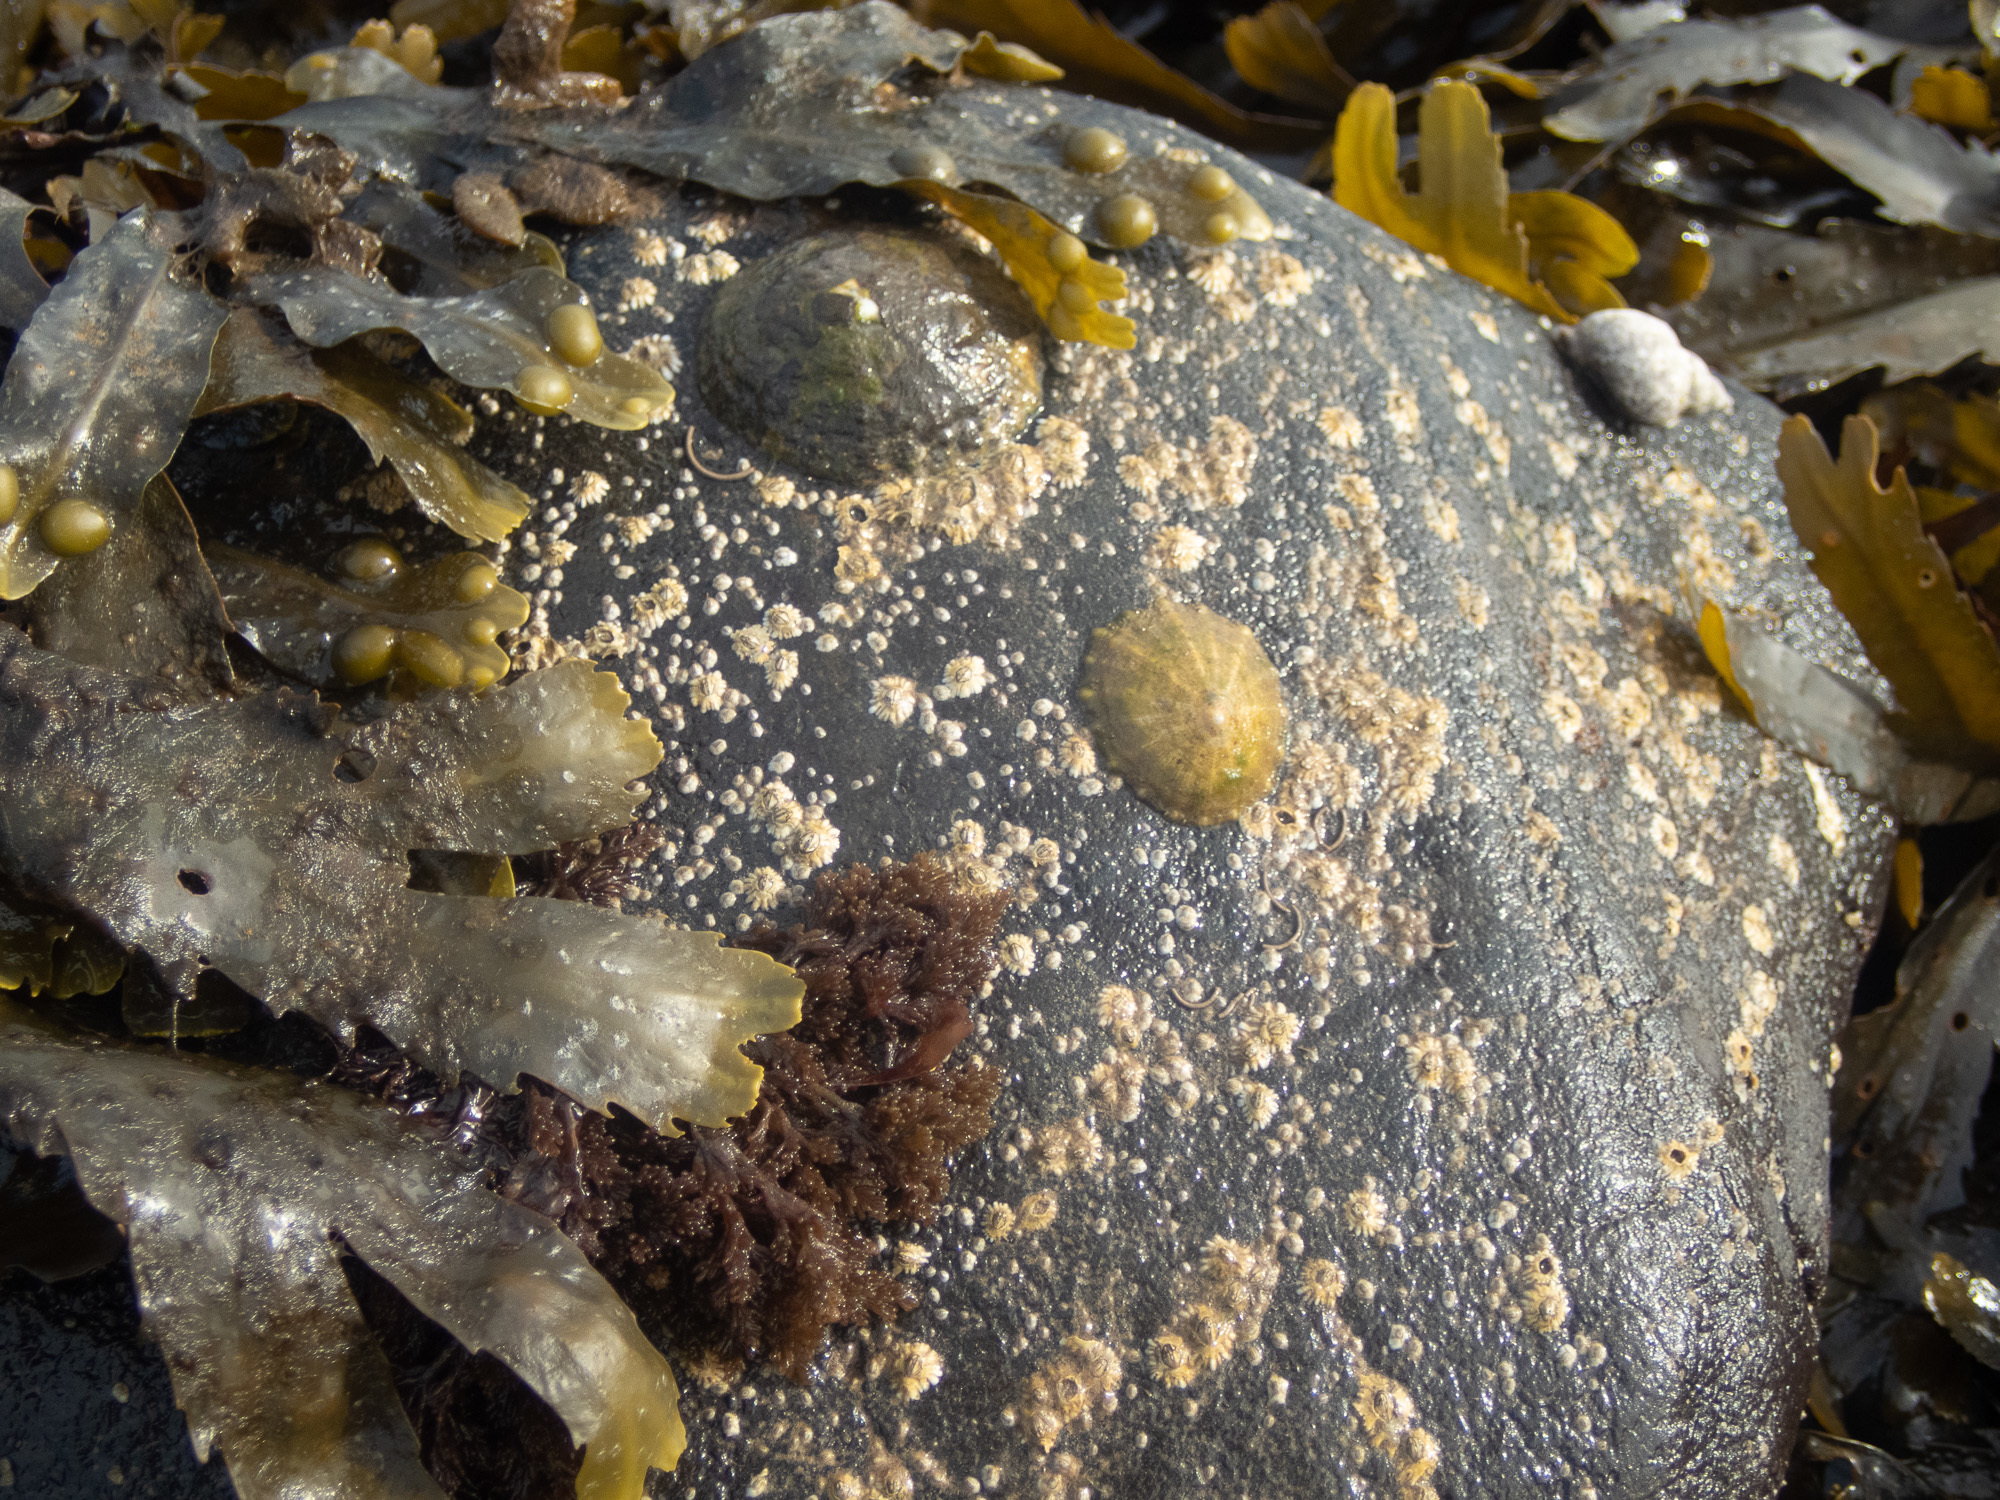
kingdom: Animalia
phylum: Mollusca
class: Gastropoda
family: Patellidae
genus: Patella
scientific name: Patella vulgata
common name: Common limpet
